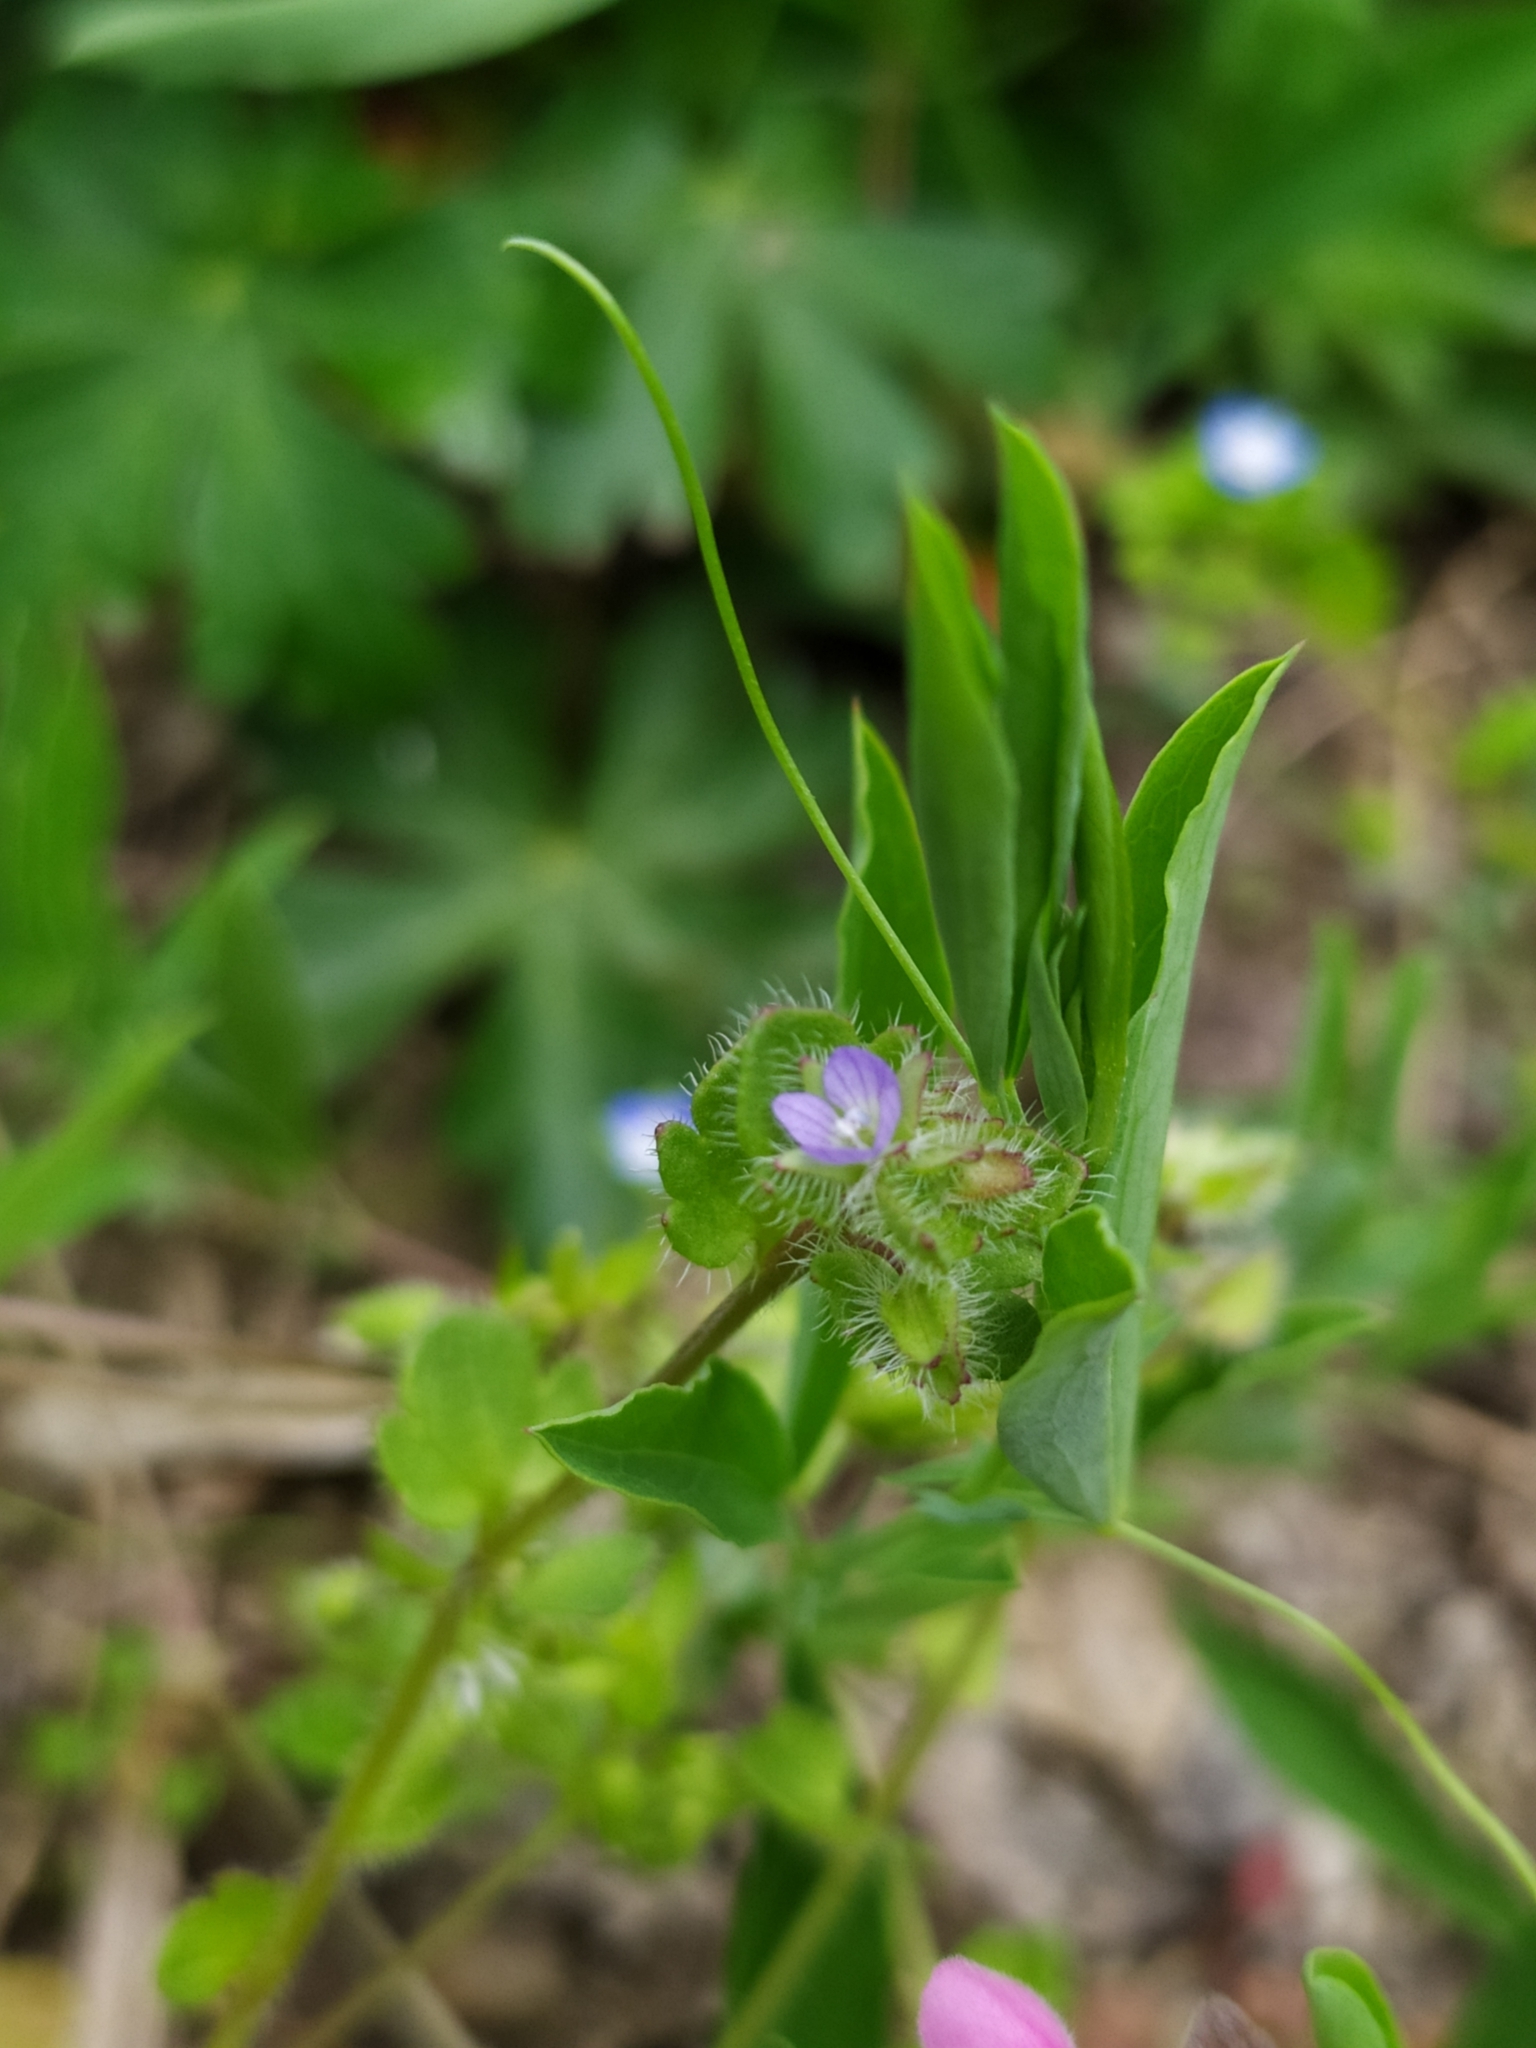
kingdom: Plantae
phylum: Tracheophyta
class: Magnoliopsida
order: Lamiales
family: Plantaginaceae
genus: Veronica
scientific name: Veronica hederifolia
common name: Ivy-leaved speedwell
